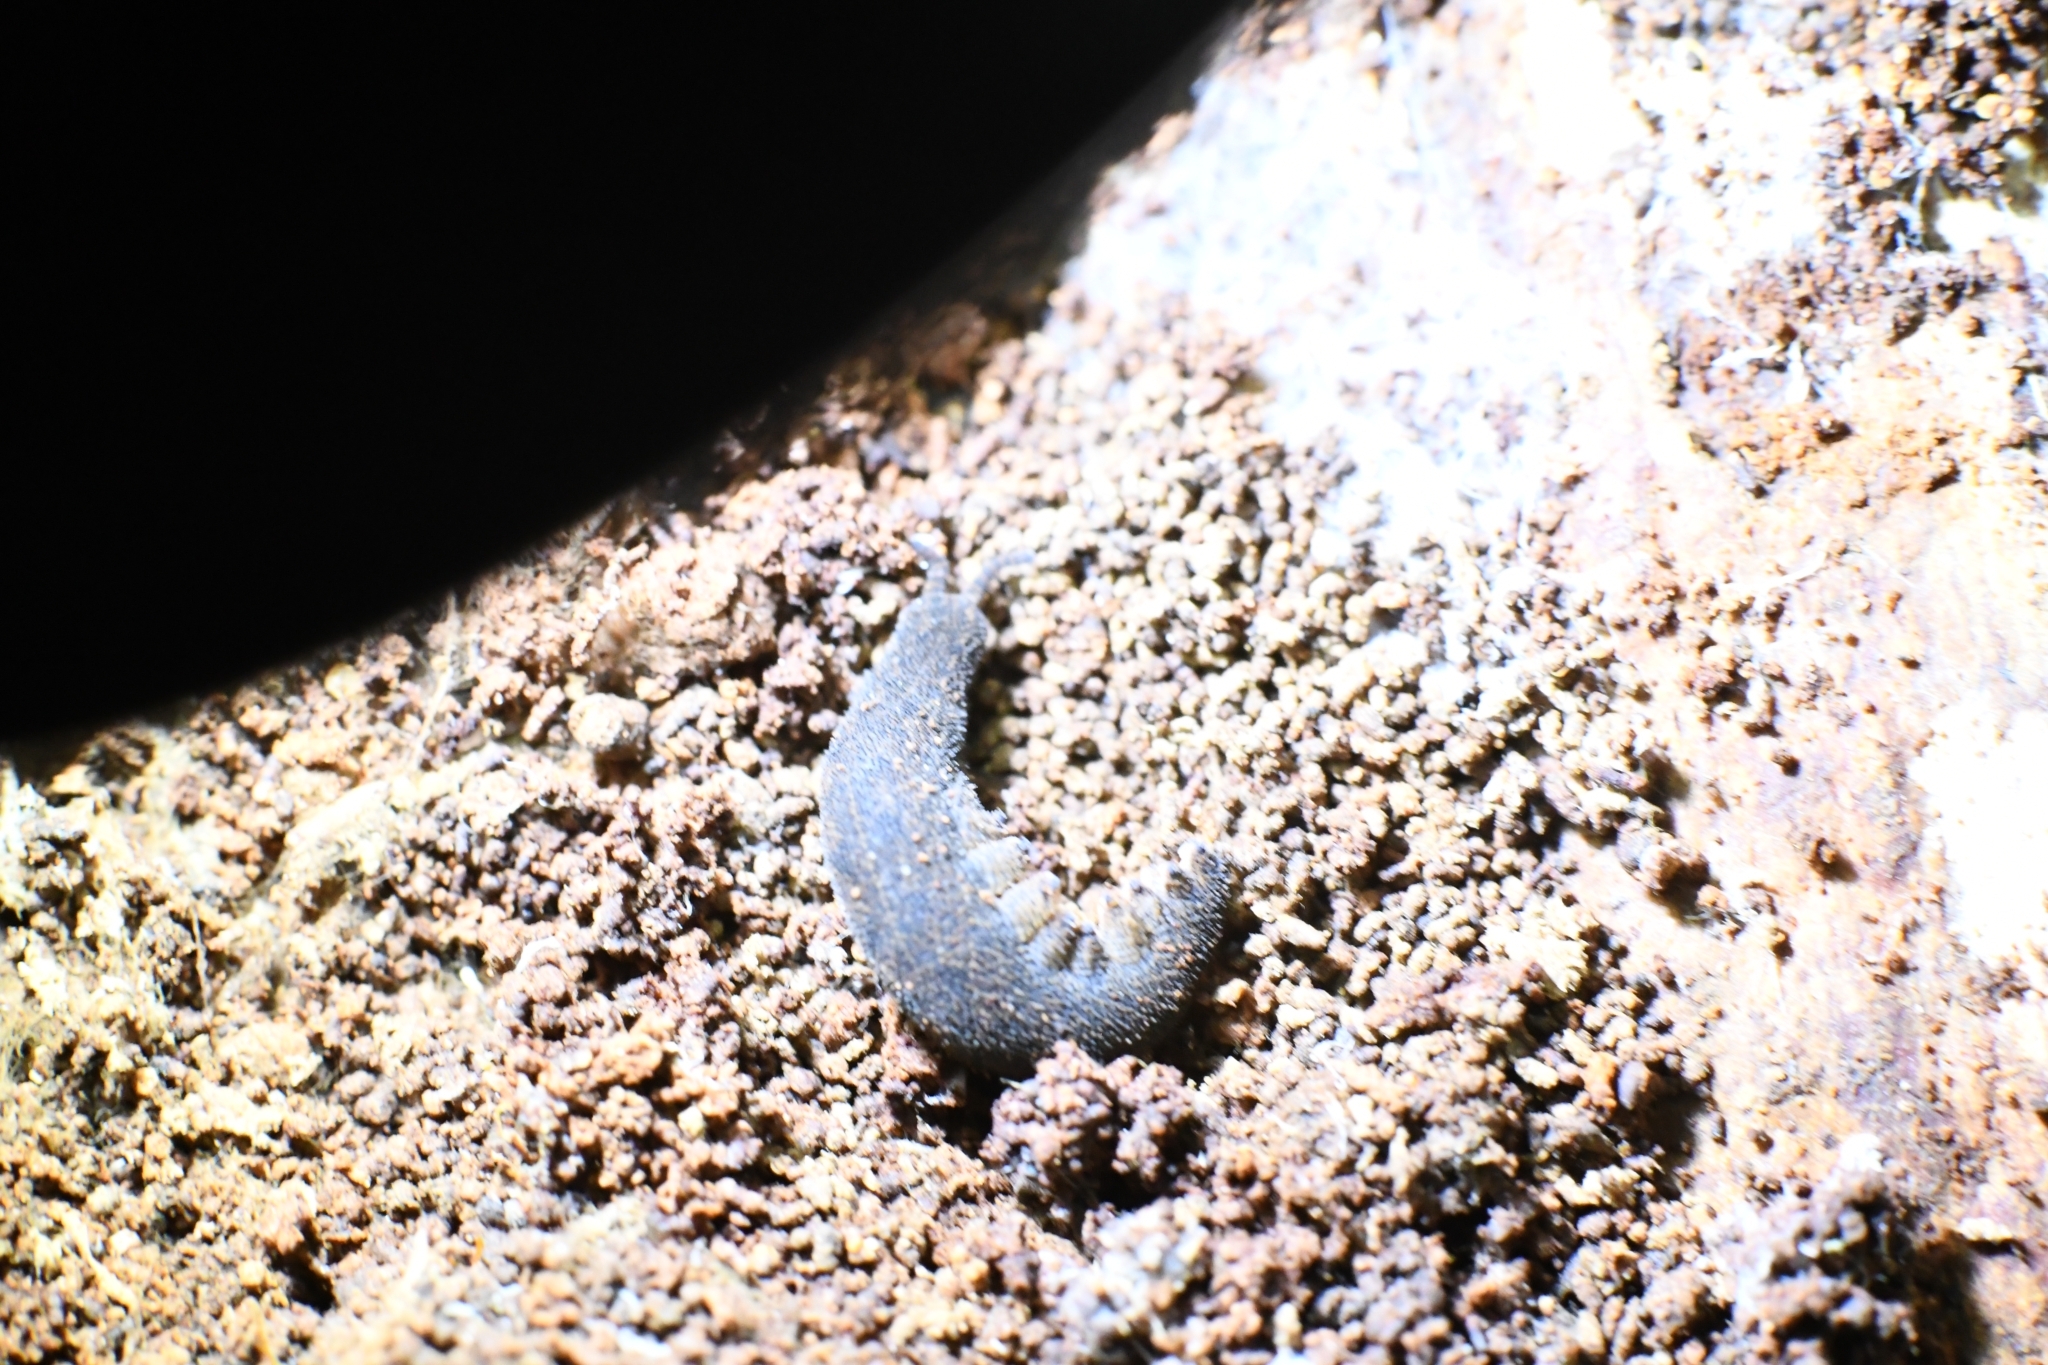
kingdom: Animalia
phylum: Onychophora
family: Peripatopsidae
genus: Kumbadjena
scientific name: Kumbadjena extrema
